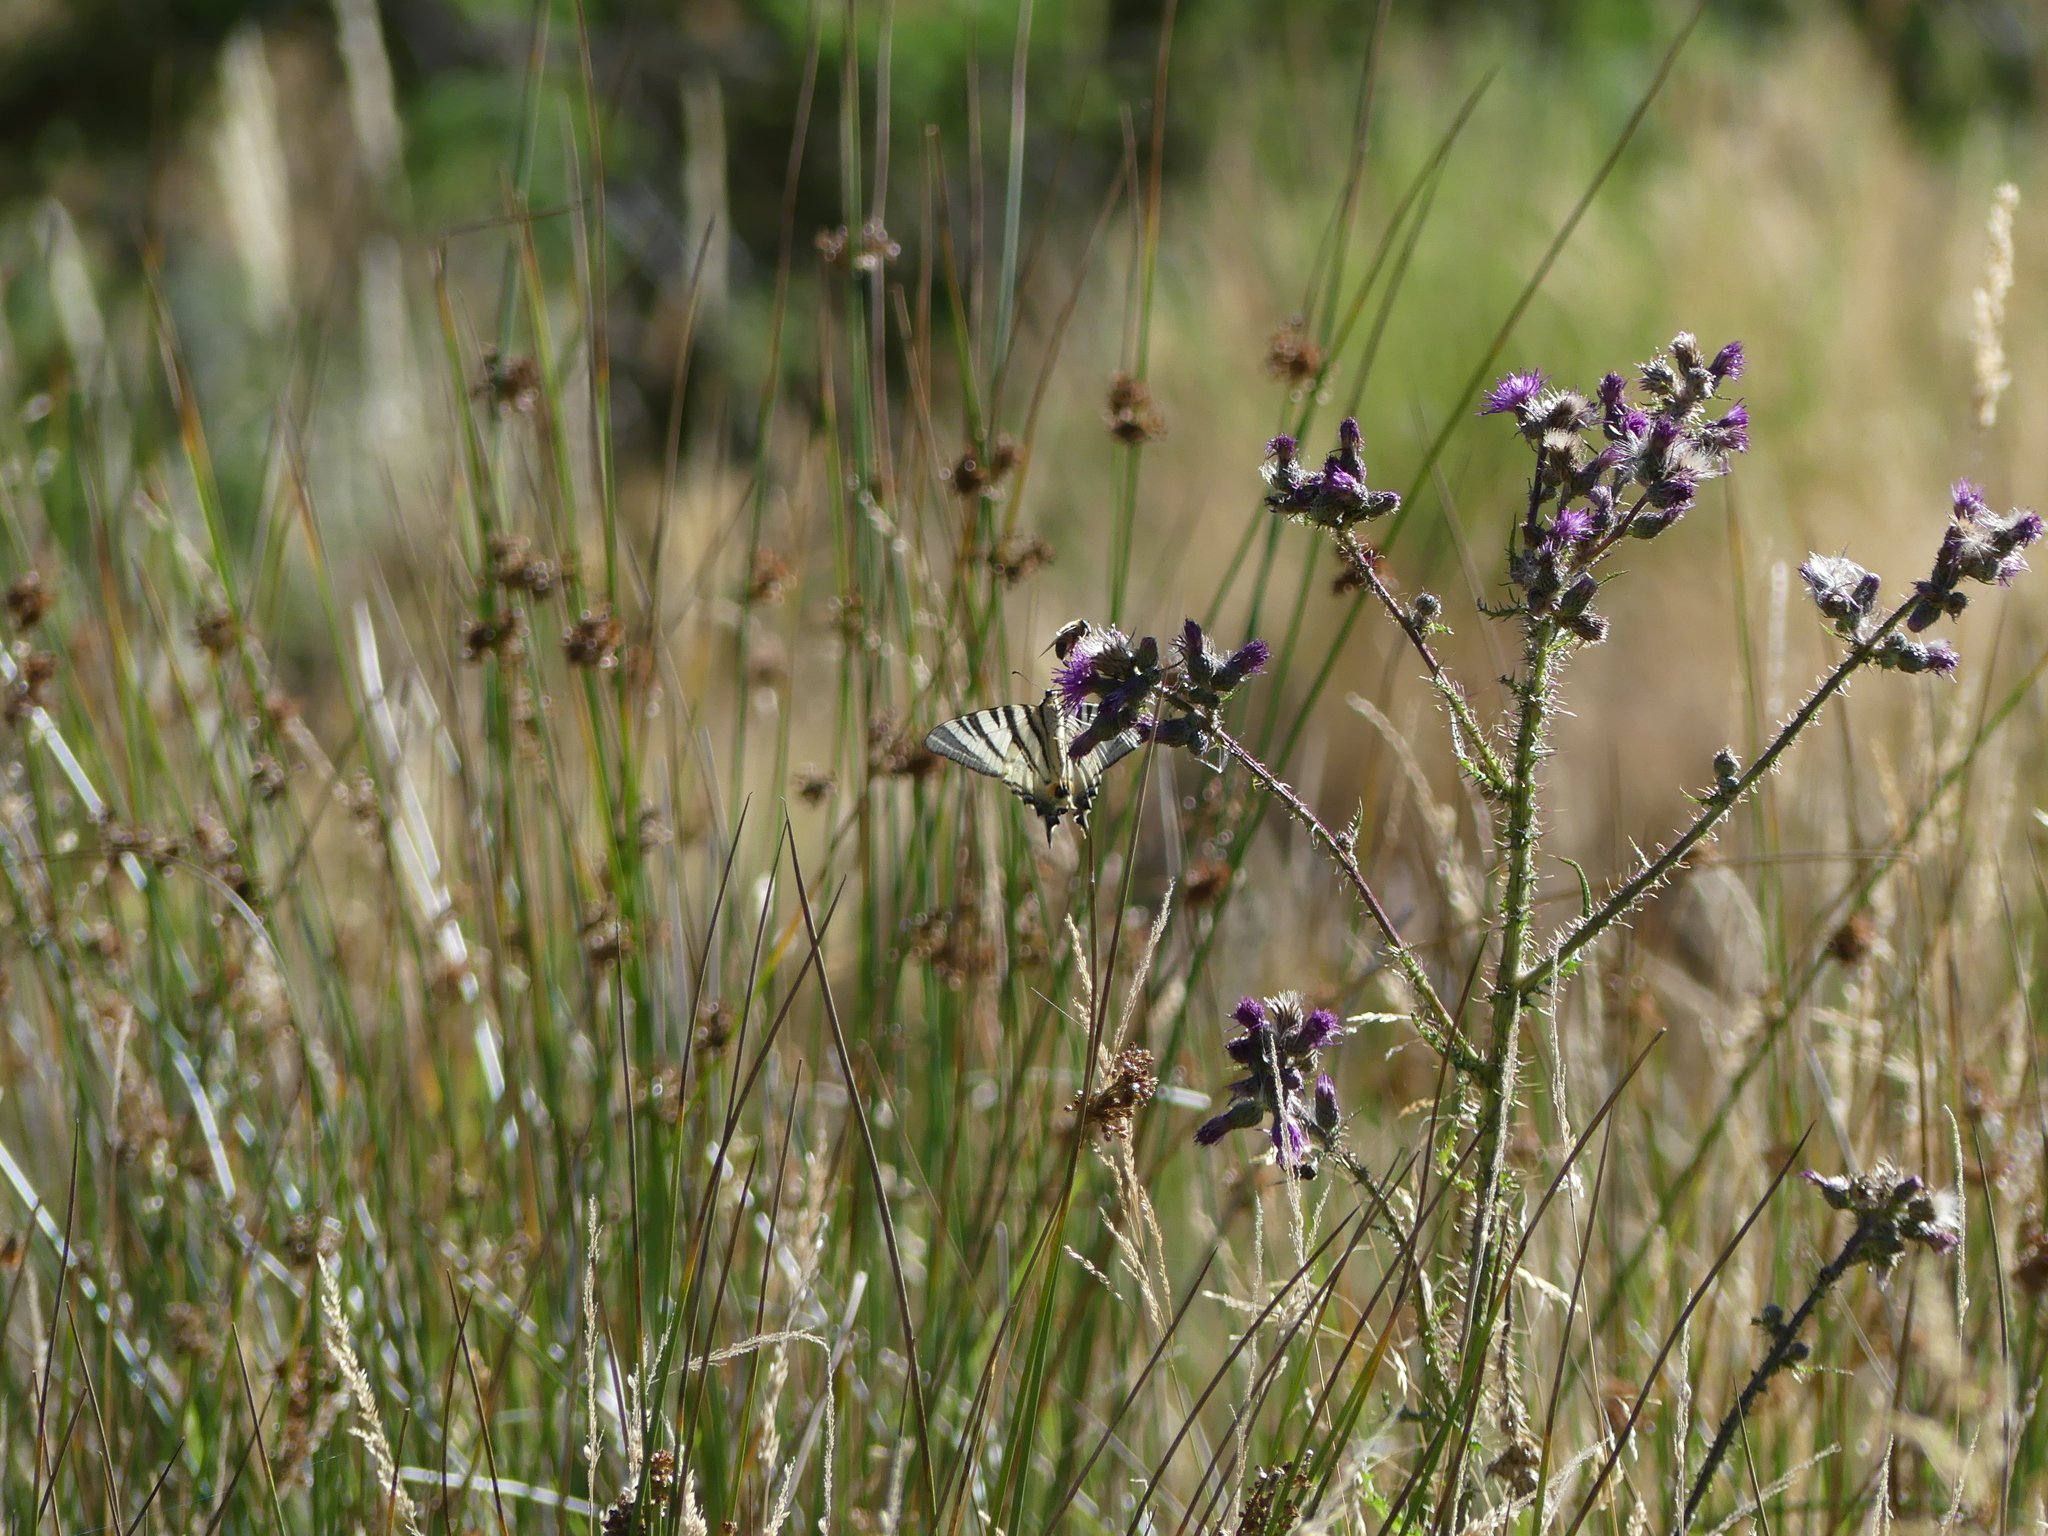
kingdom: Animalia
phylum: Arthropoda
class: Insecta
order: Lepidoptera
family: Papilionidae
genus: Iphiclides
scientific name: Iphiclides podalirius
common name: Scarce swallowtail
